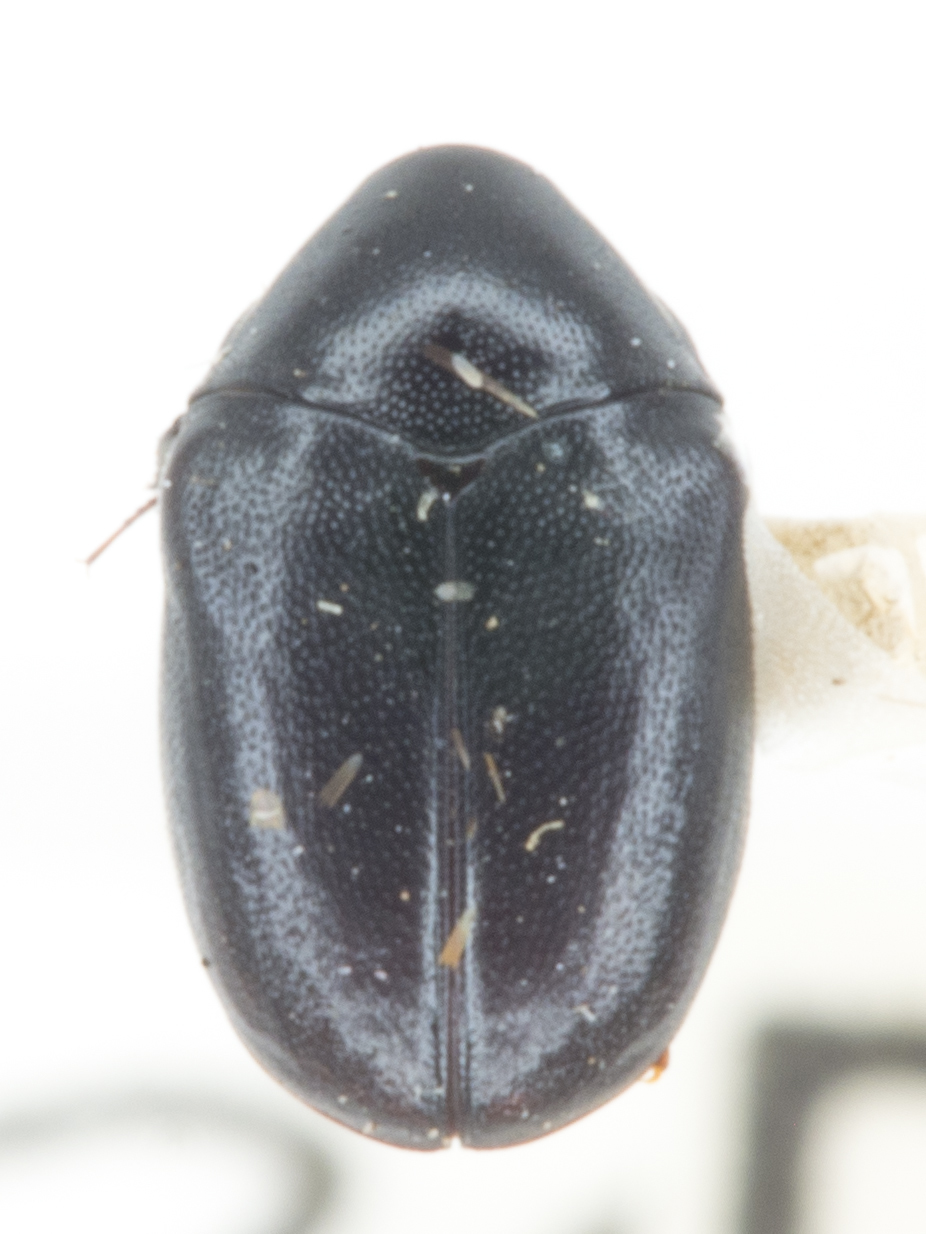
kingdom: Animalia
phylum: Arthropoda
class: Insecta
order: Coleoptera
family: Dermestidae
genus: Orphilus
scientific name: Orphilus subnitidus
